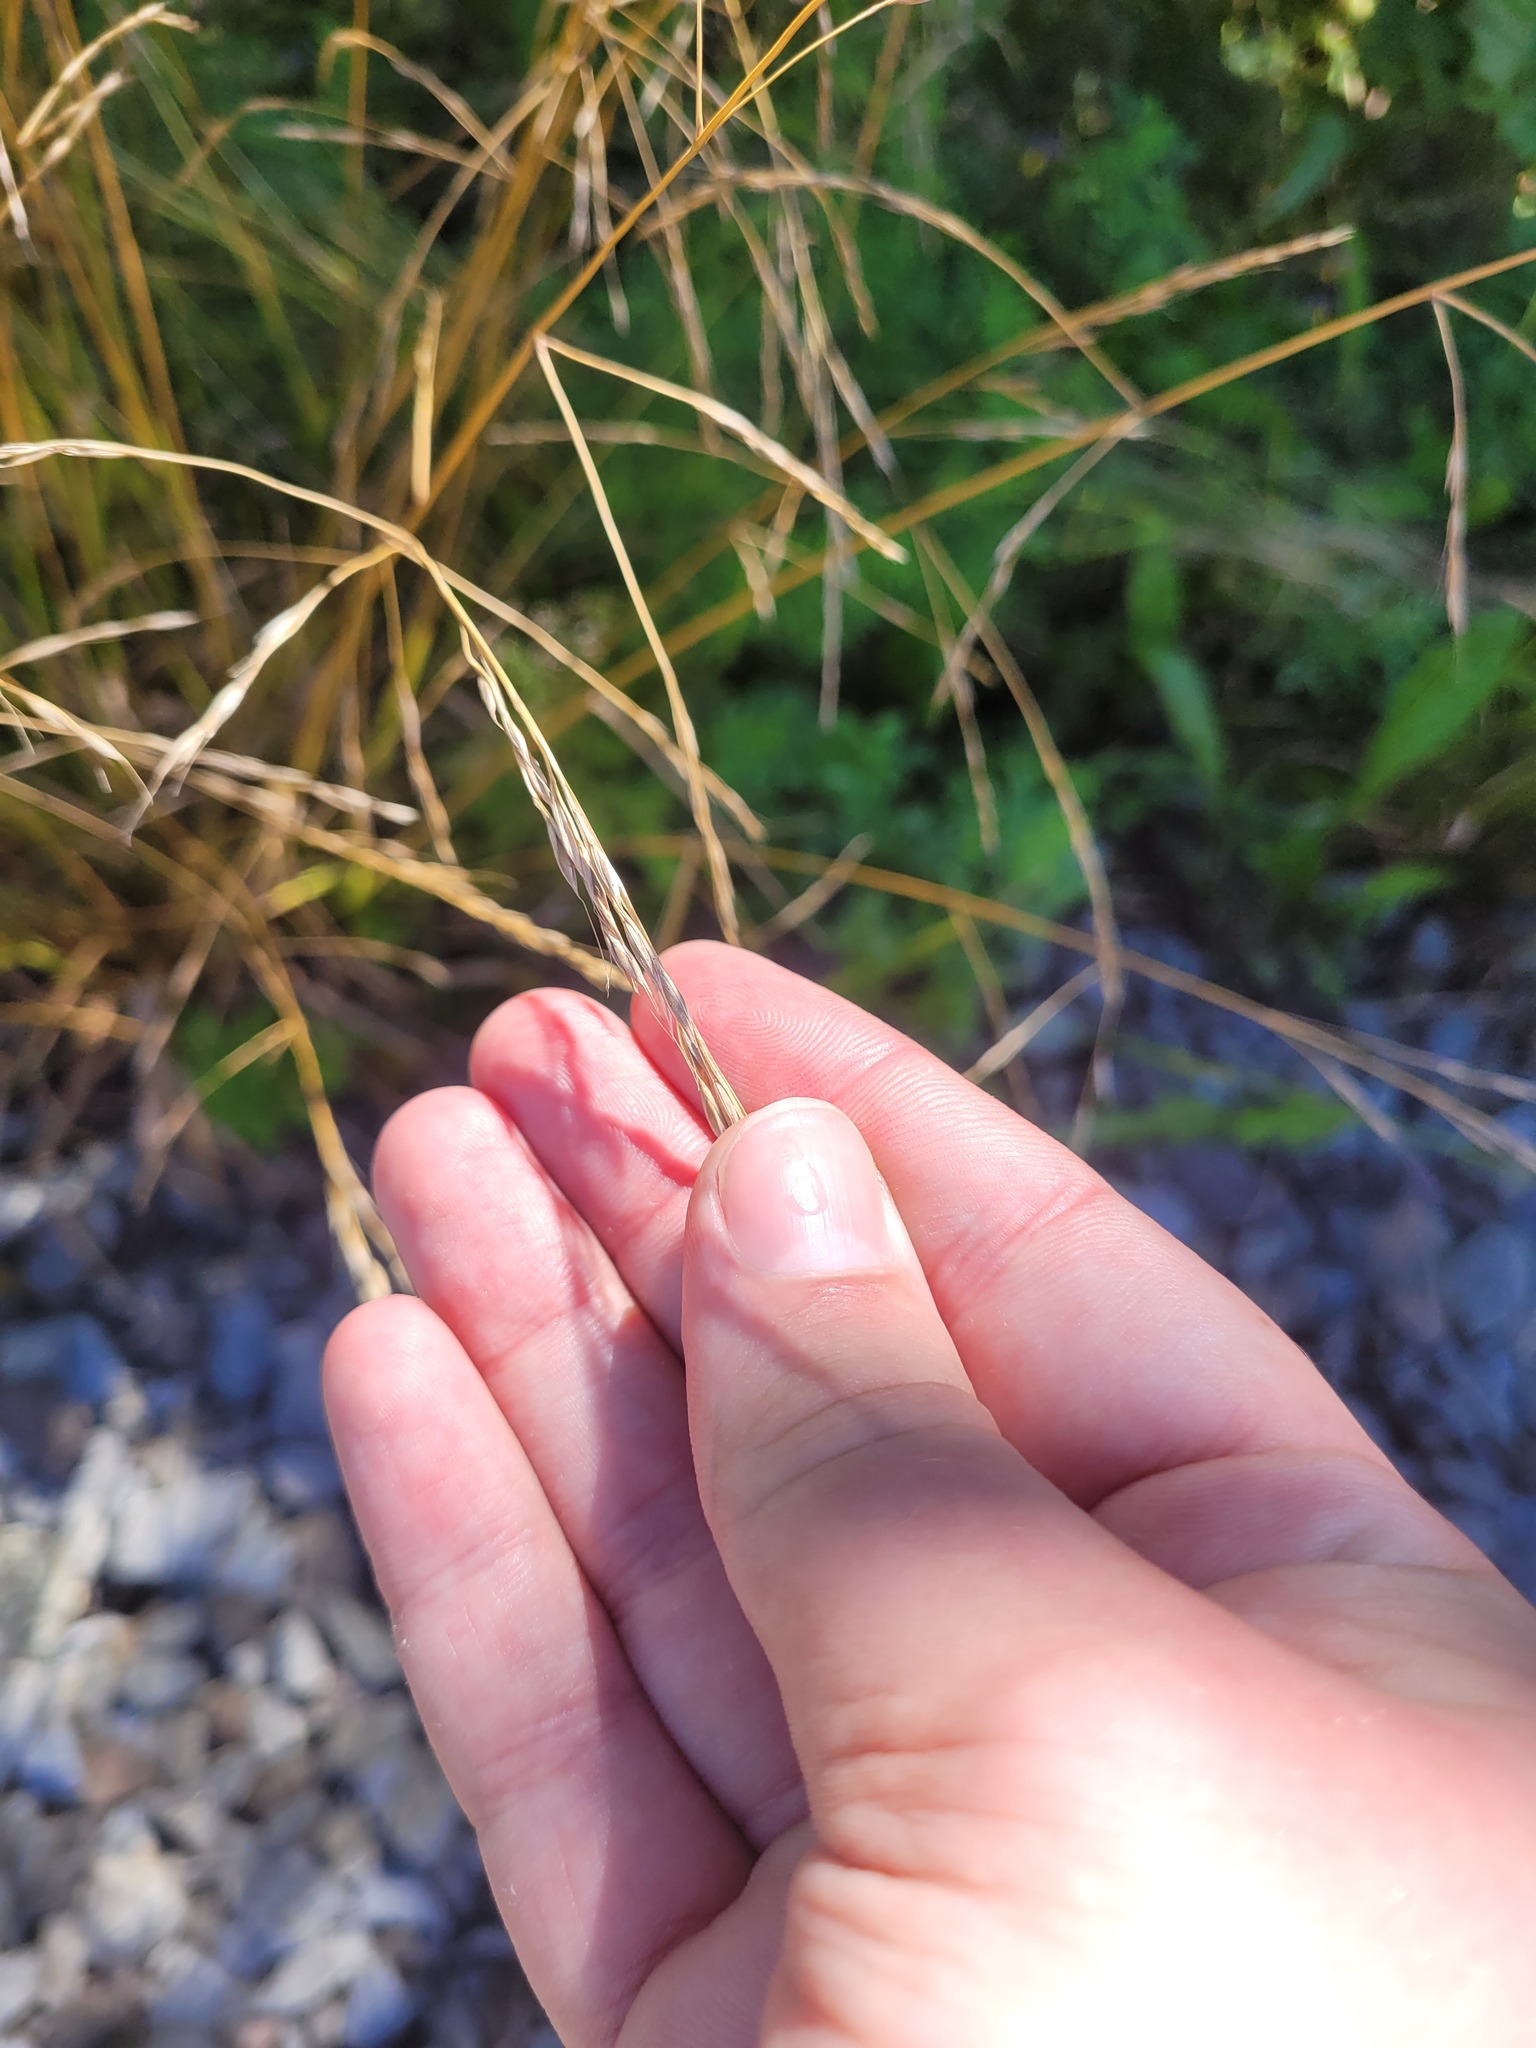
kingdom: Plantae
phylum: Tracheophyta
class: Liliopsida
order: Poales
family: Poaceae
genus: Lolium
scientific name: Lolium giganteum
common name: Giant fescue
